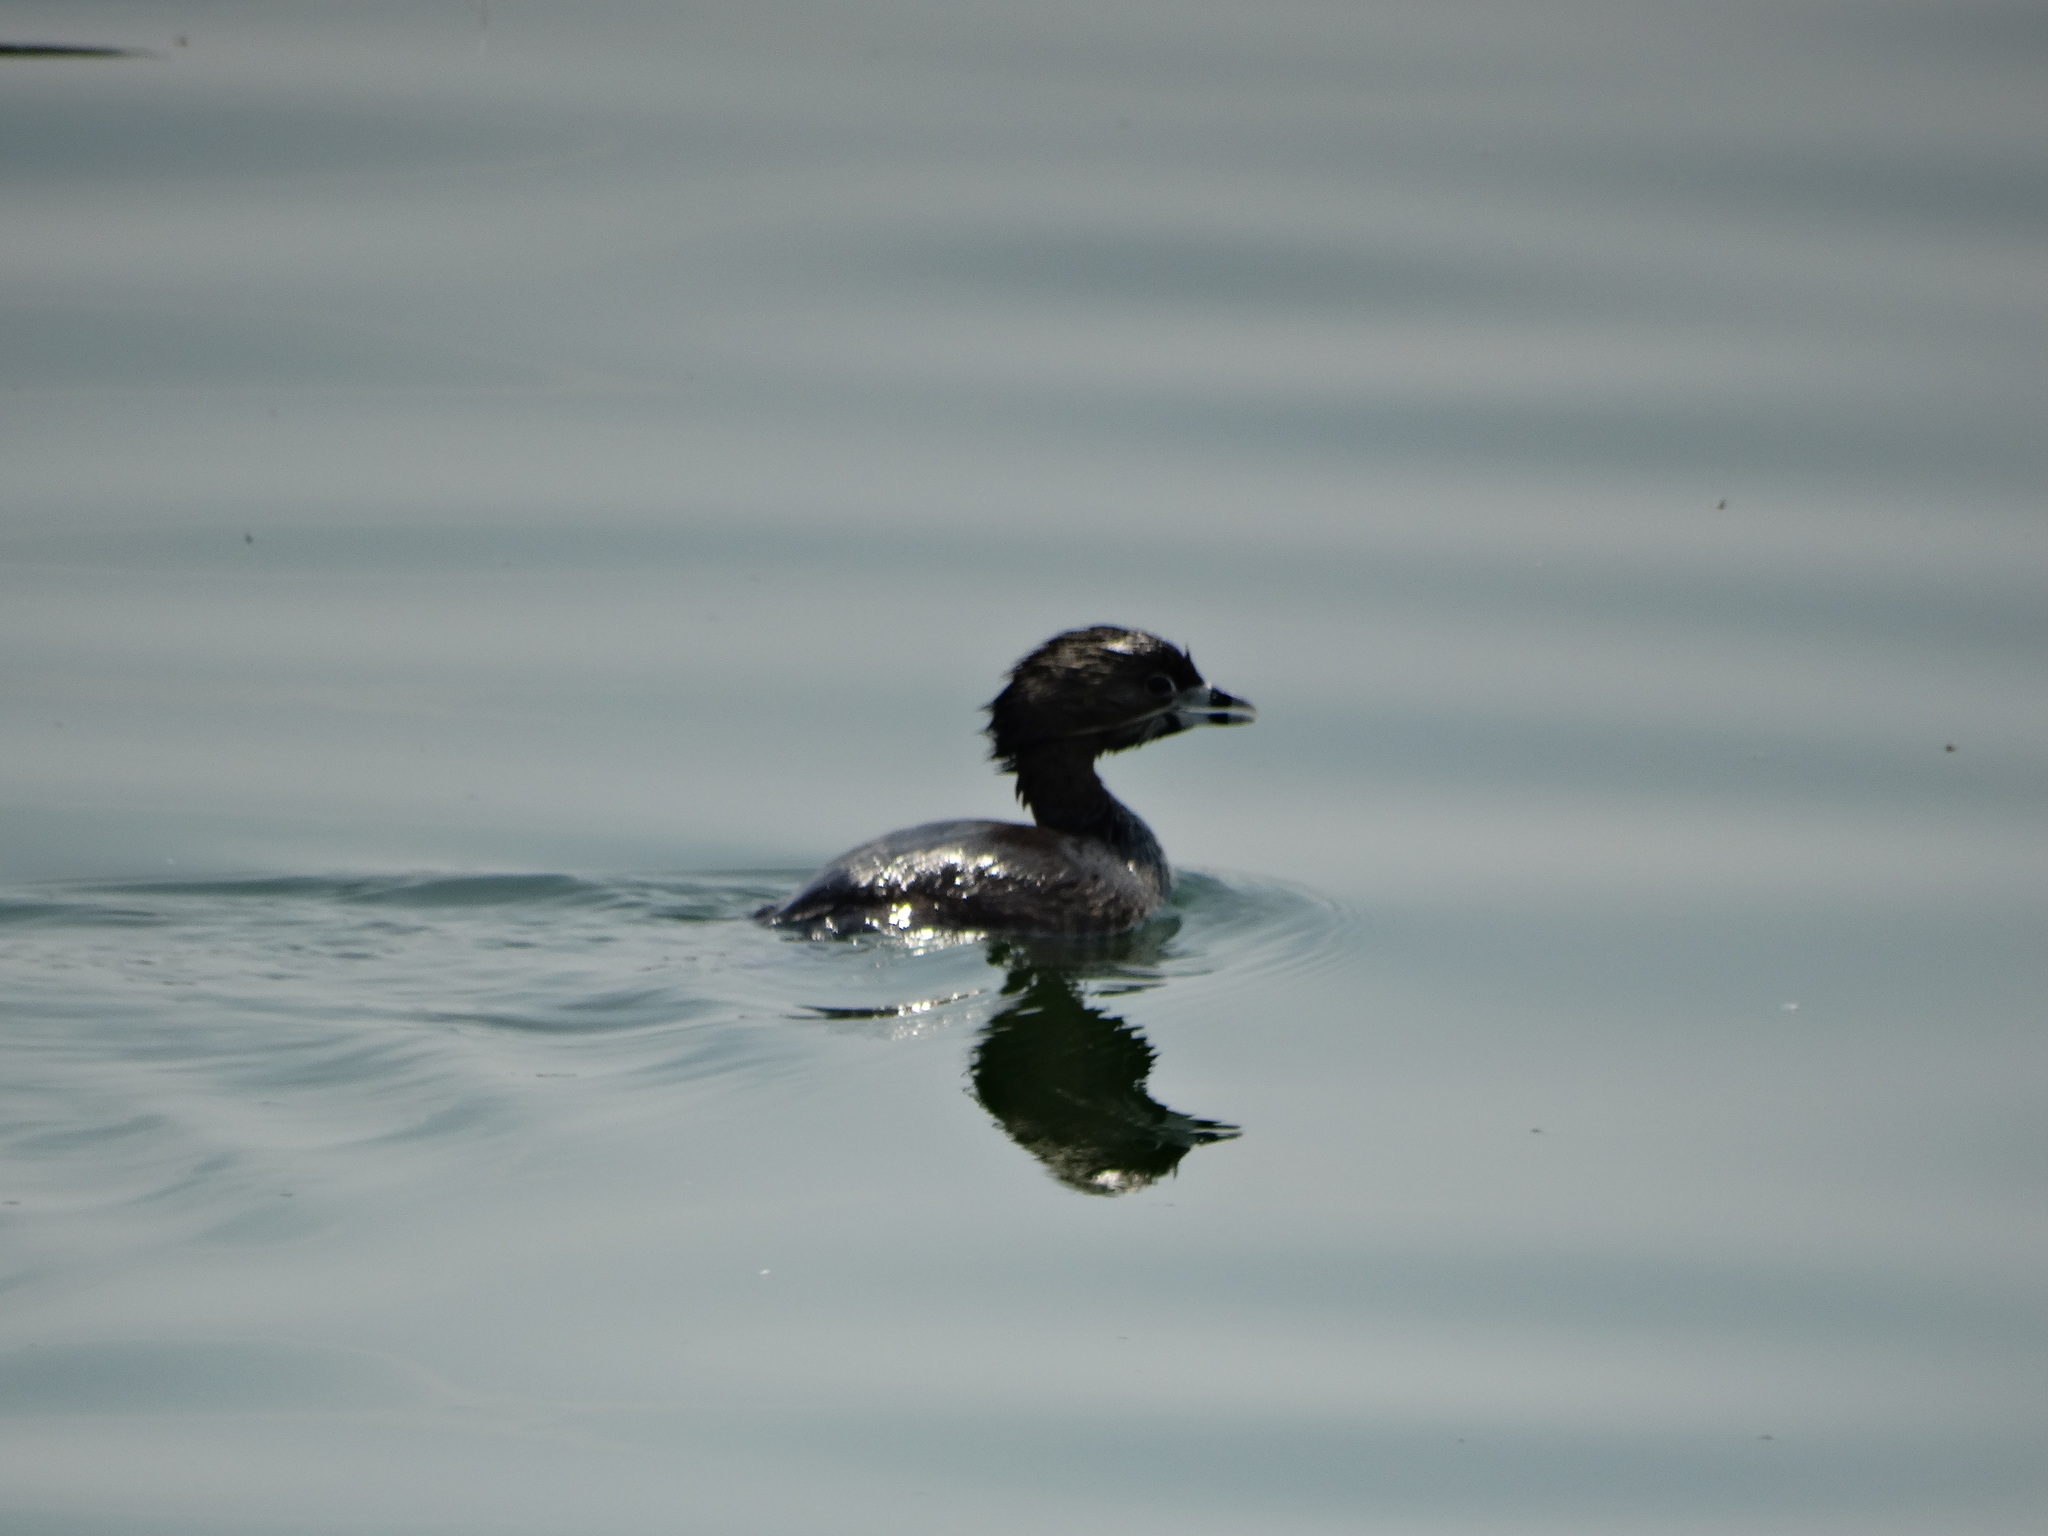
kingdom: Animalia
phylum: Chordata
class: Aves
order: Podicipediformes
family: Podicipedidae
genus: Podilymbus
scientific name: Podilymbus podiceps
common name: Pied-billed grebe
